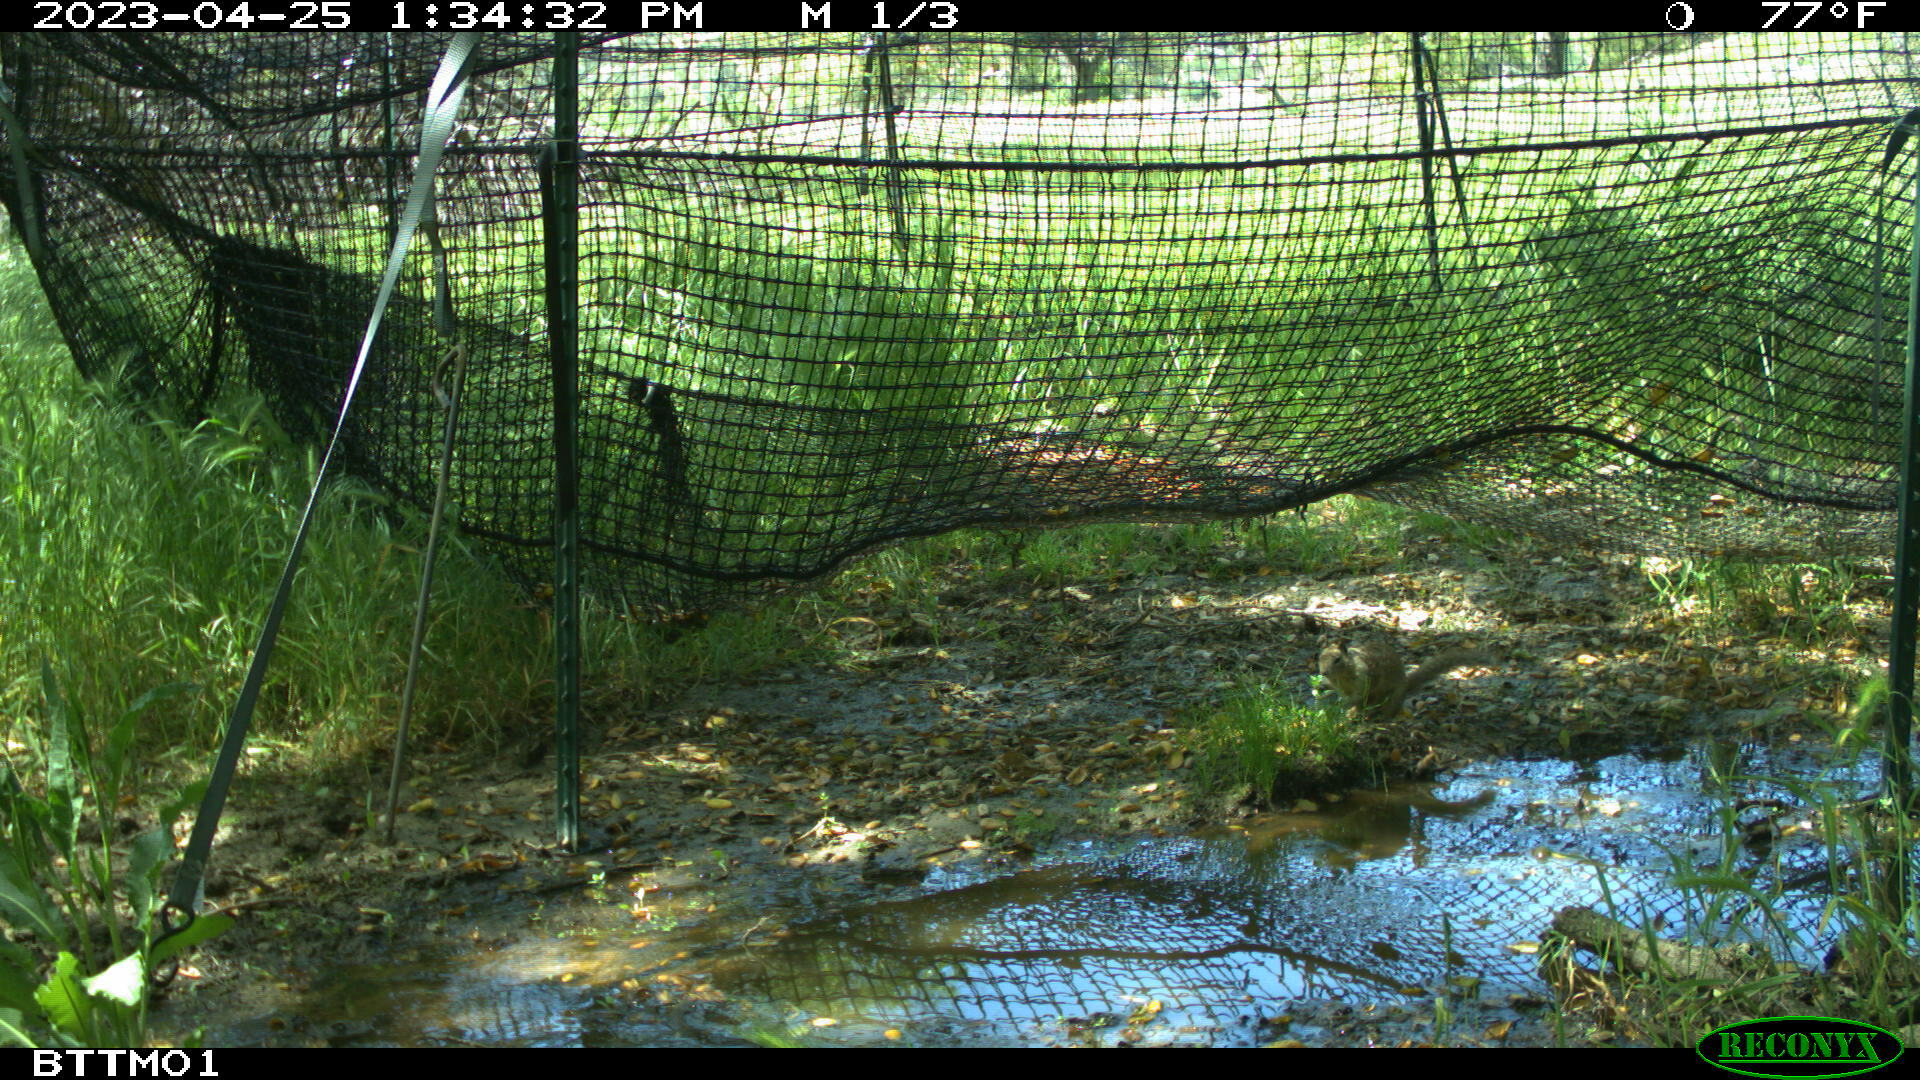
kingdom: Animalia
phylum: Chordata
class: Mammalia
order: Rodentia
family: Sciuridae
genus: Otospermophilus
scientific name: Otospermophilus beecheyi
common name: California ground squirrel
